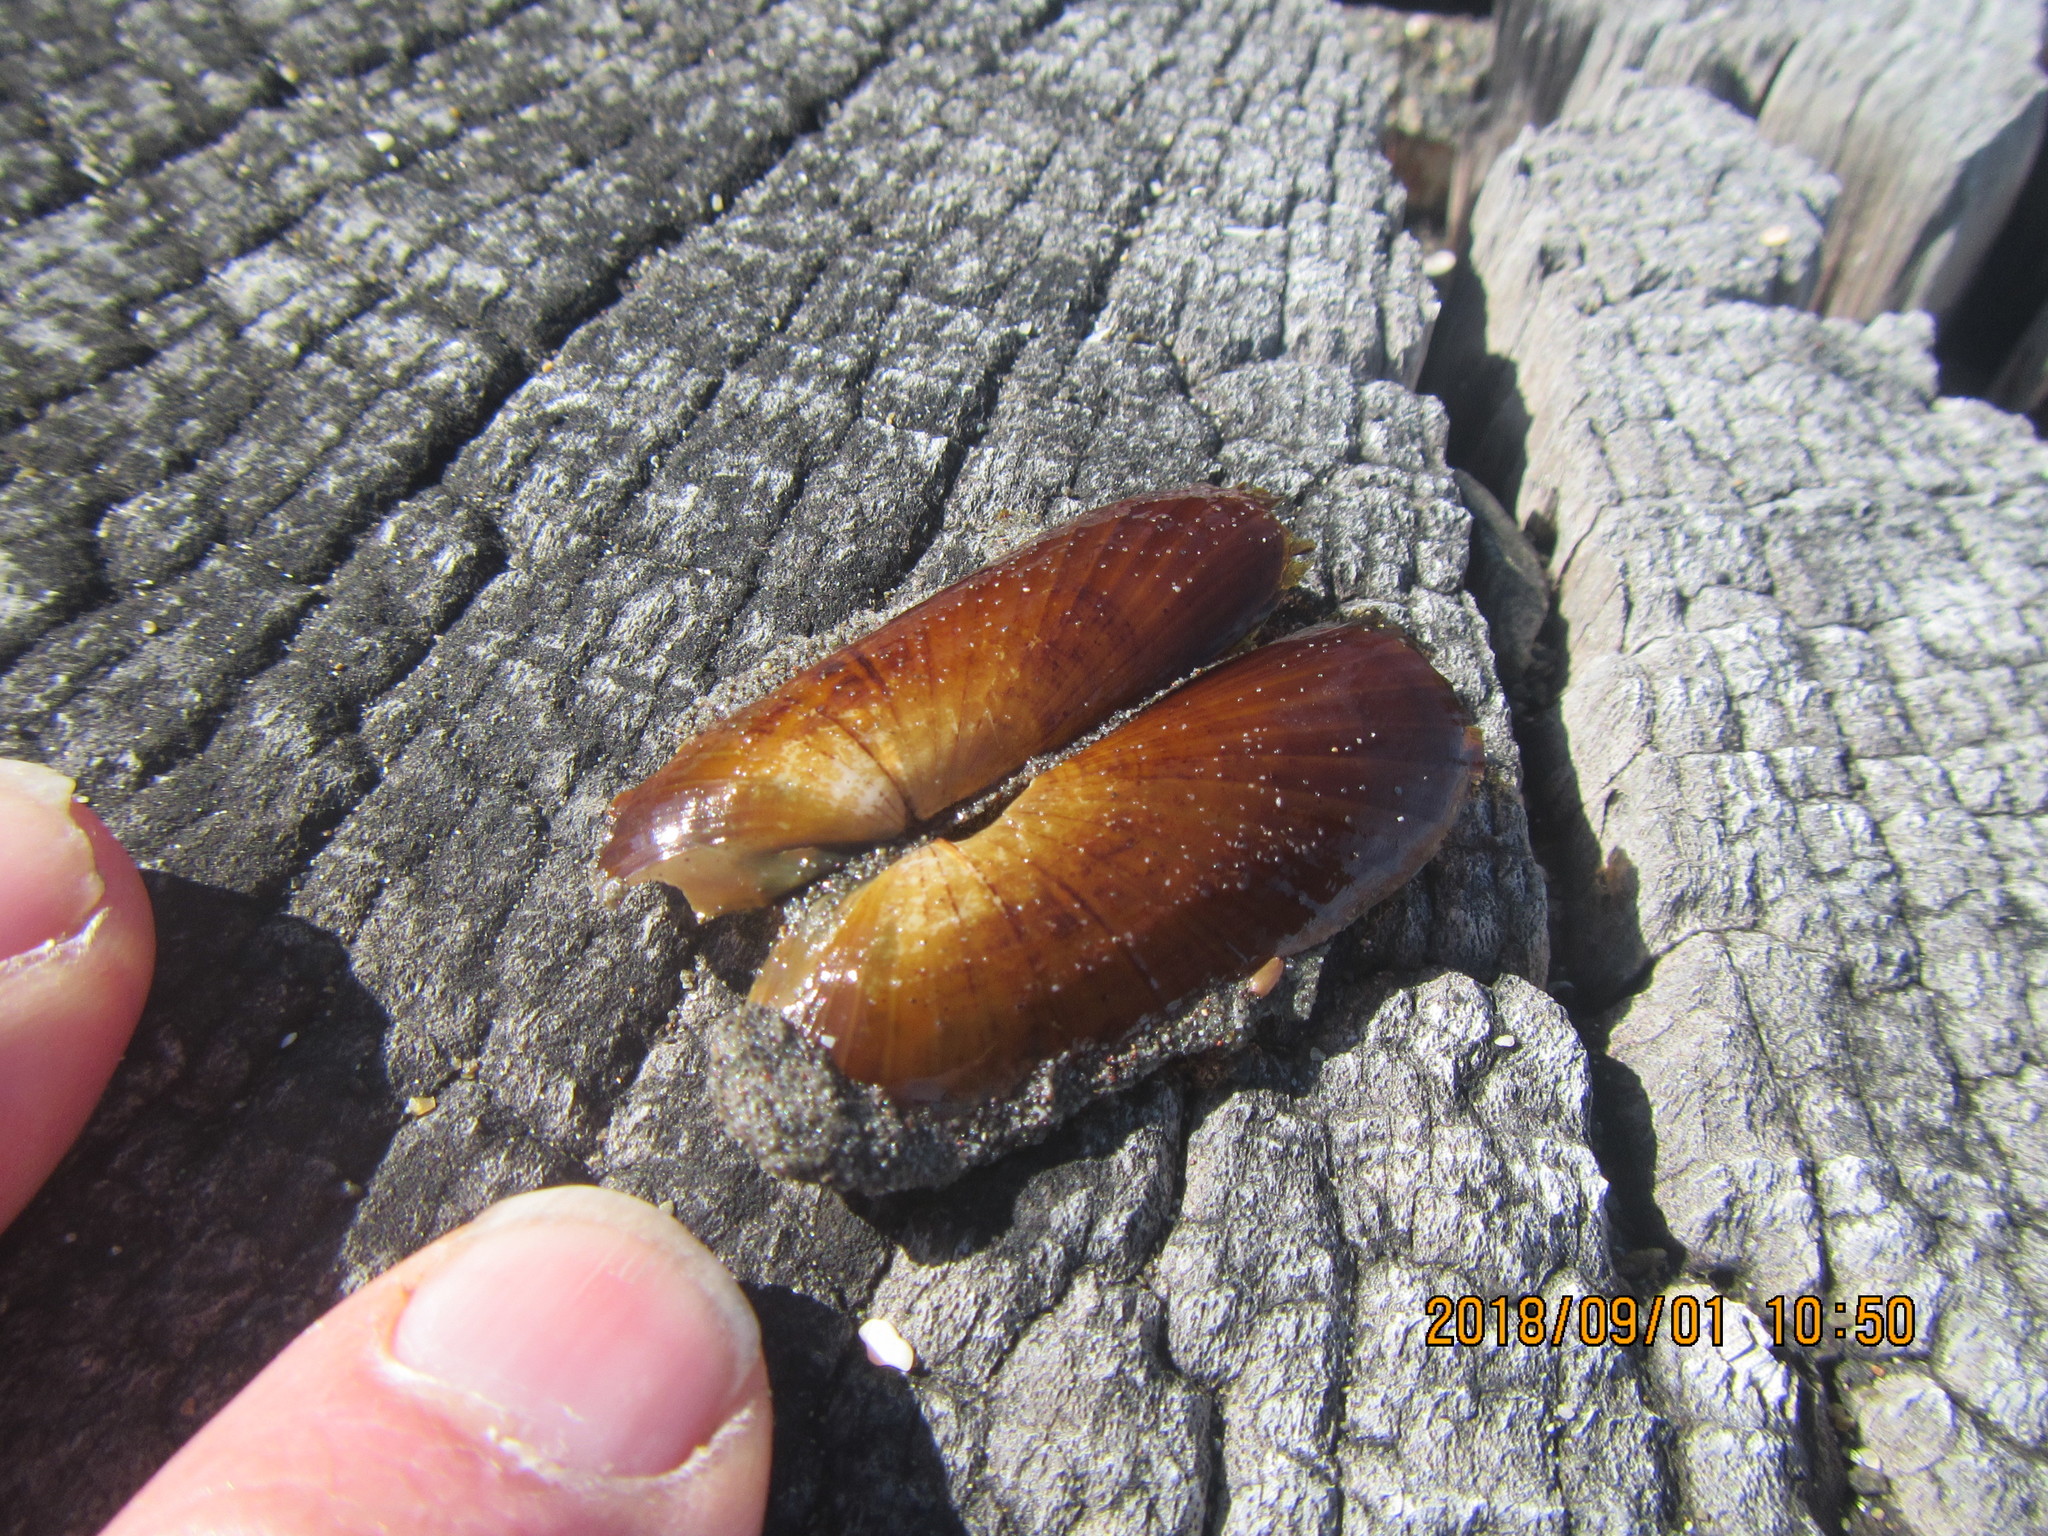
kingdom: Animalia
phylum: Mollusca
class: Bivalvia
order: Solemyida
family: Solemyidae
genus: Solemya
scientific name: Solemya parkinsonii
